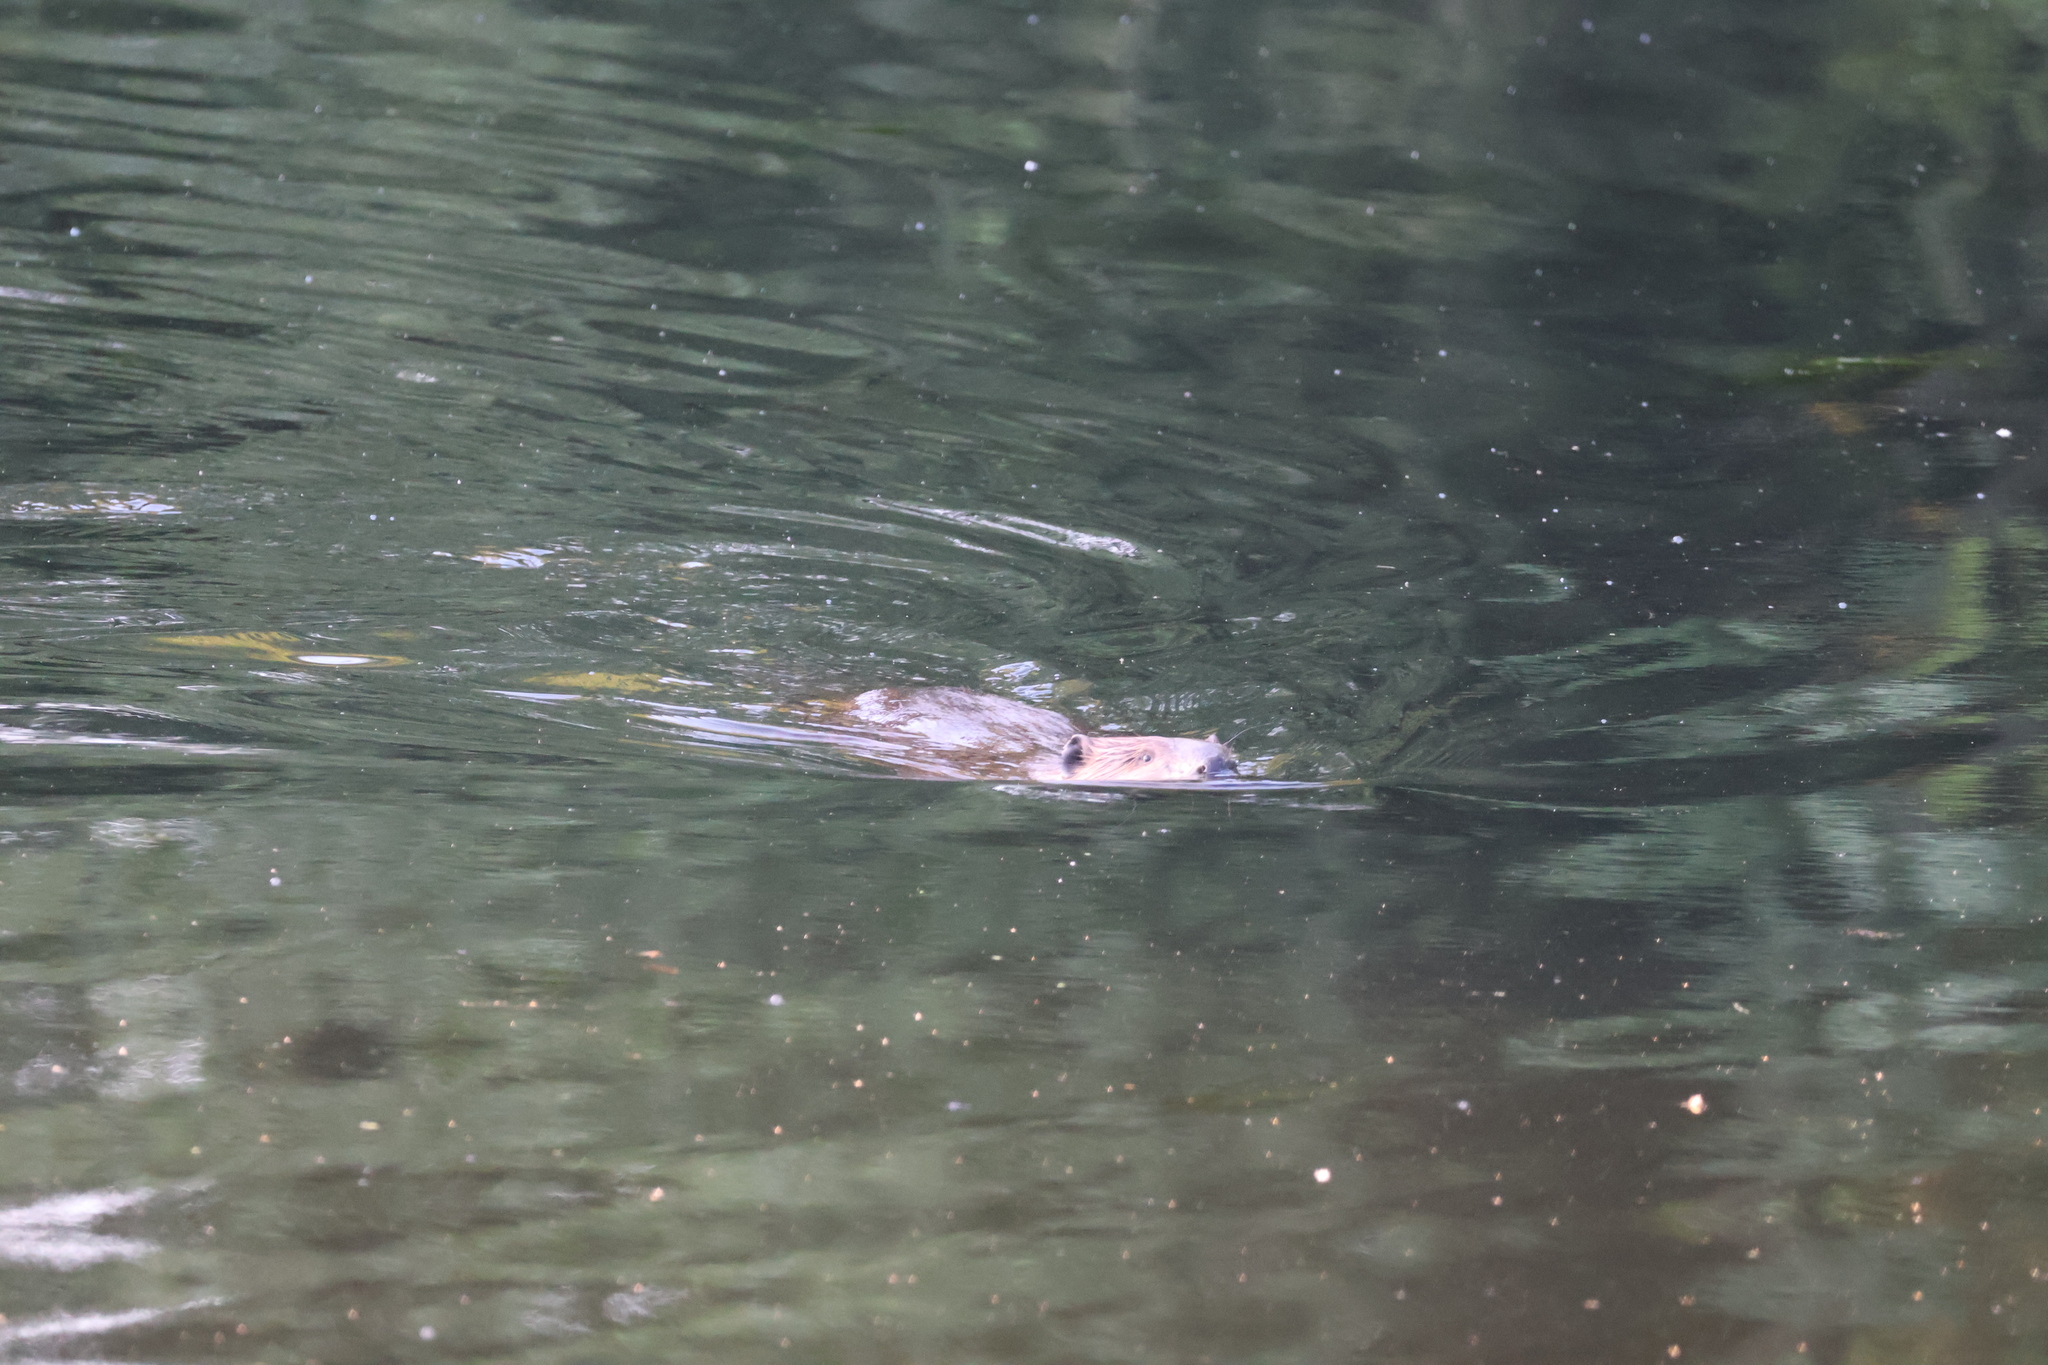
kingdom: Animalia
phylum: Chordata
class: Mammalia
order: Rodentia
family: Castoridae
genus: Castor
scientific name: Castor canadensis
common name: American beaver
